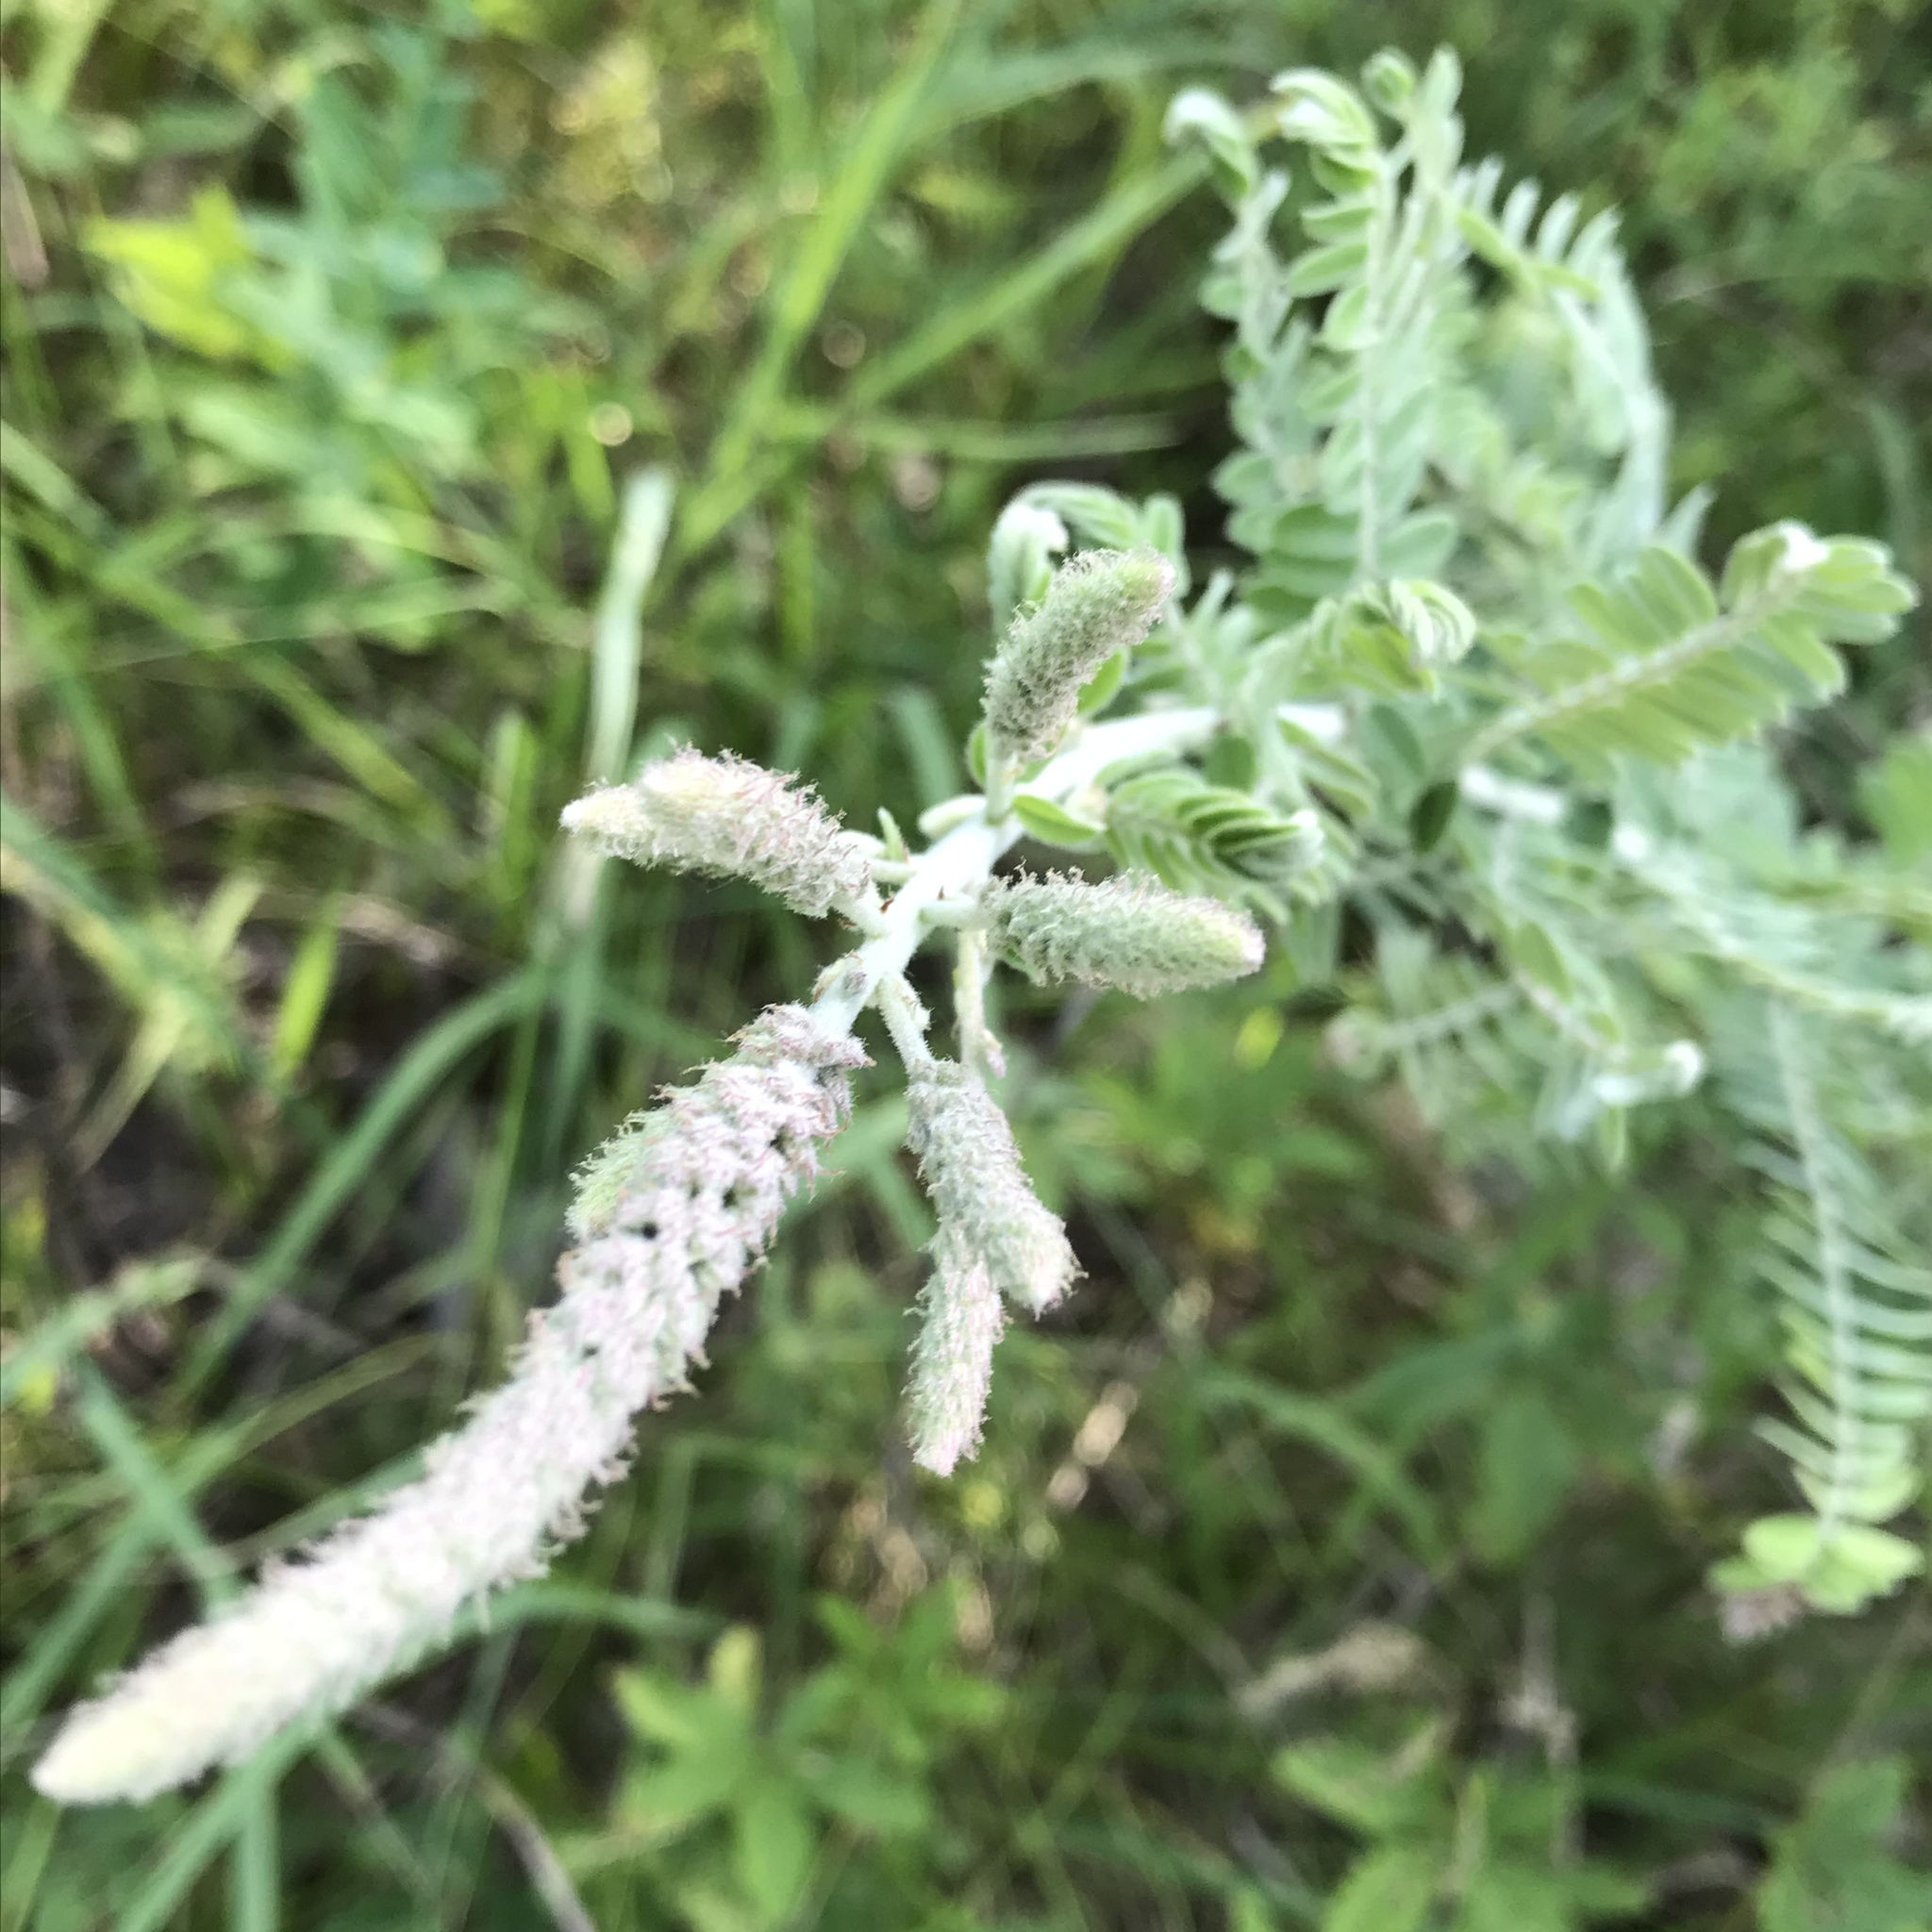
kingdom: Plantae
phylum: Tracheophyta
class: Magnoliopsida
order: Fabales
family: Fabaceae
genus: Amorpha
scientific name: Amorpha canescens
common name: Leadplant
